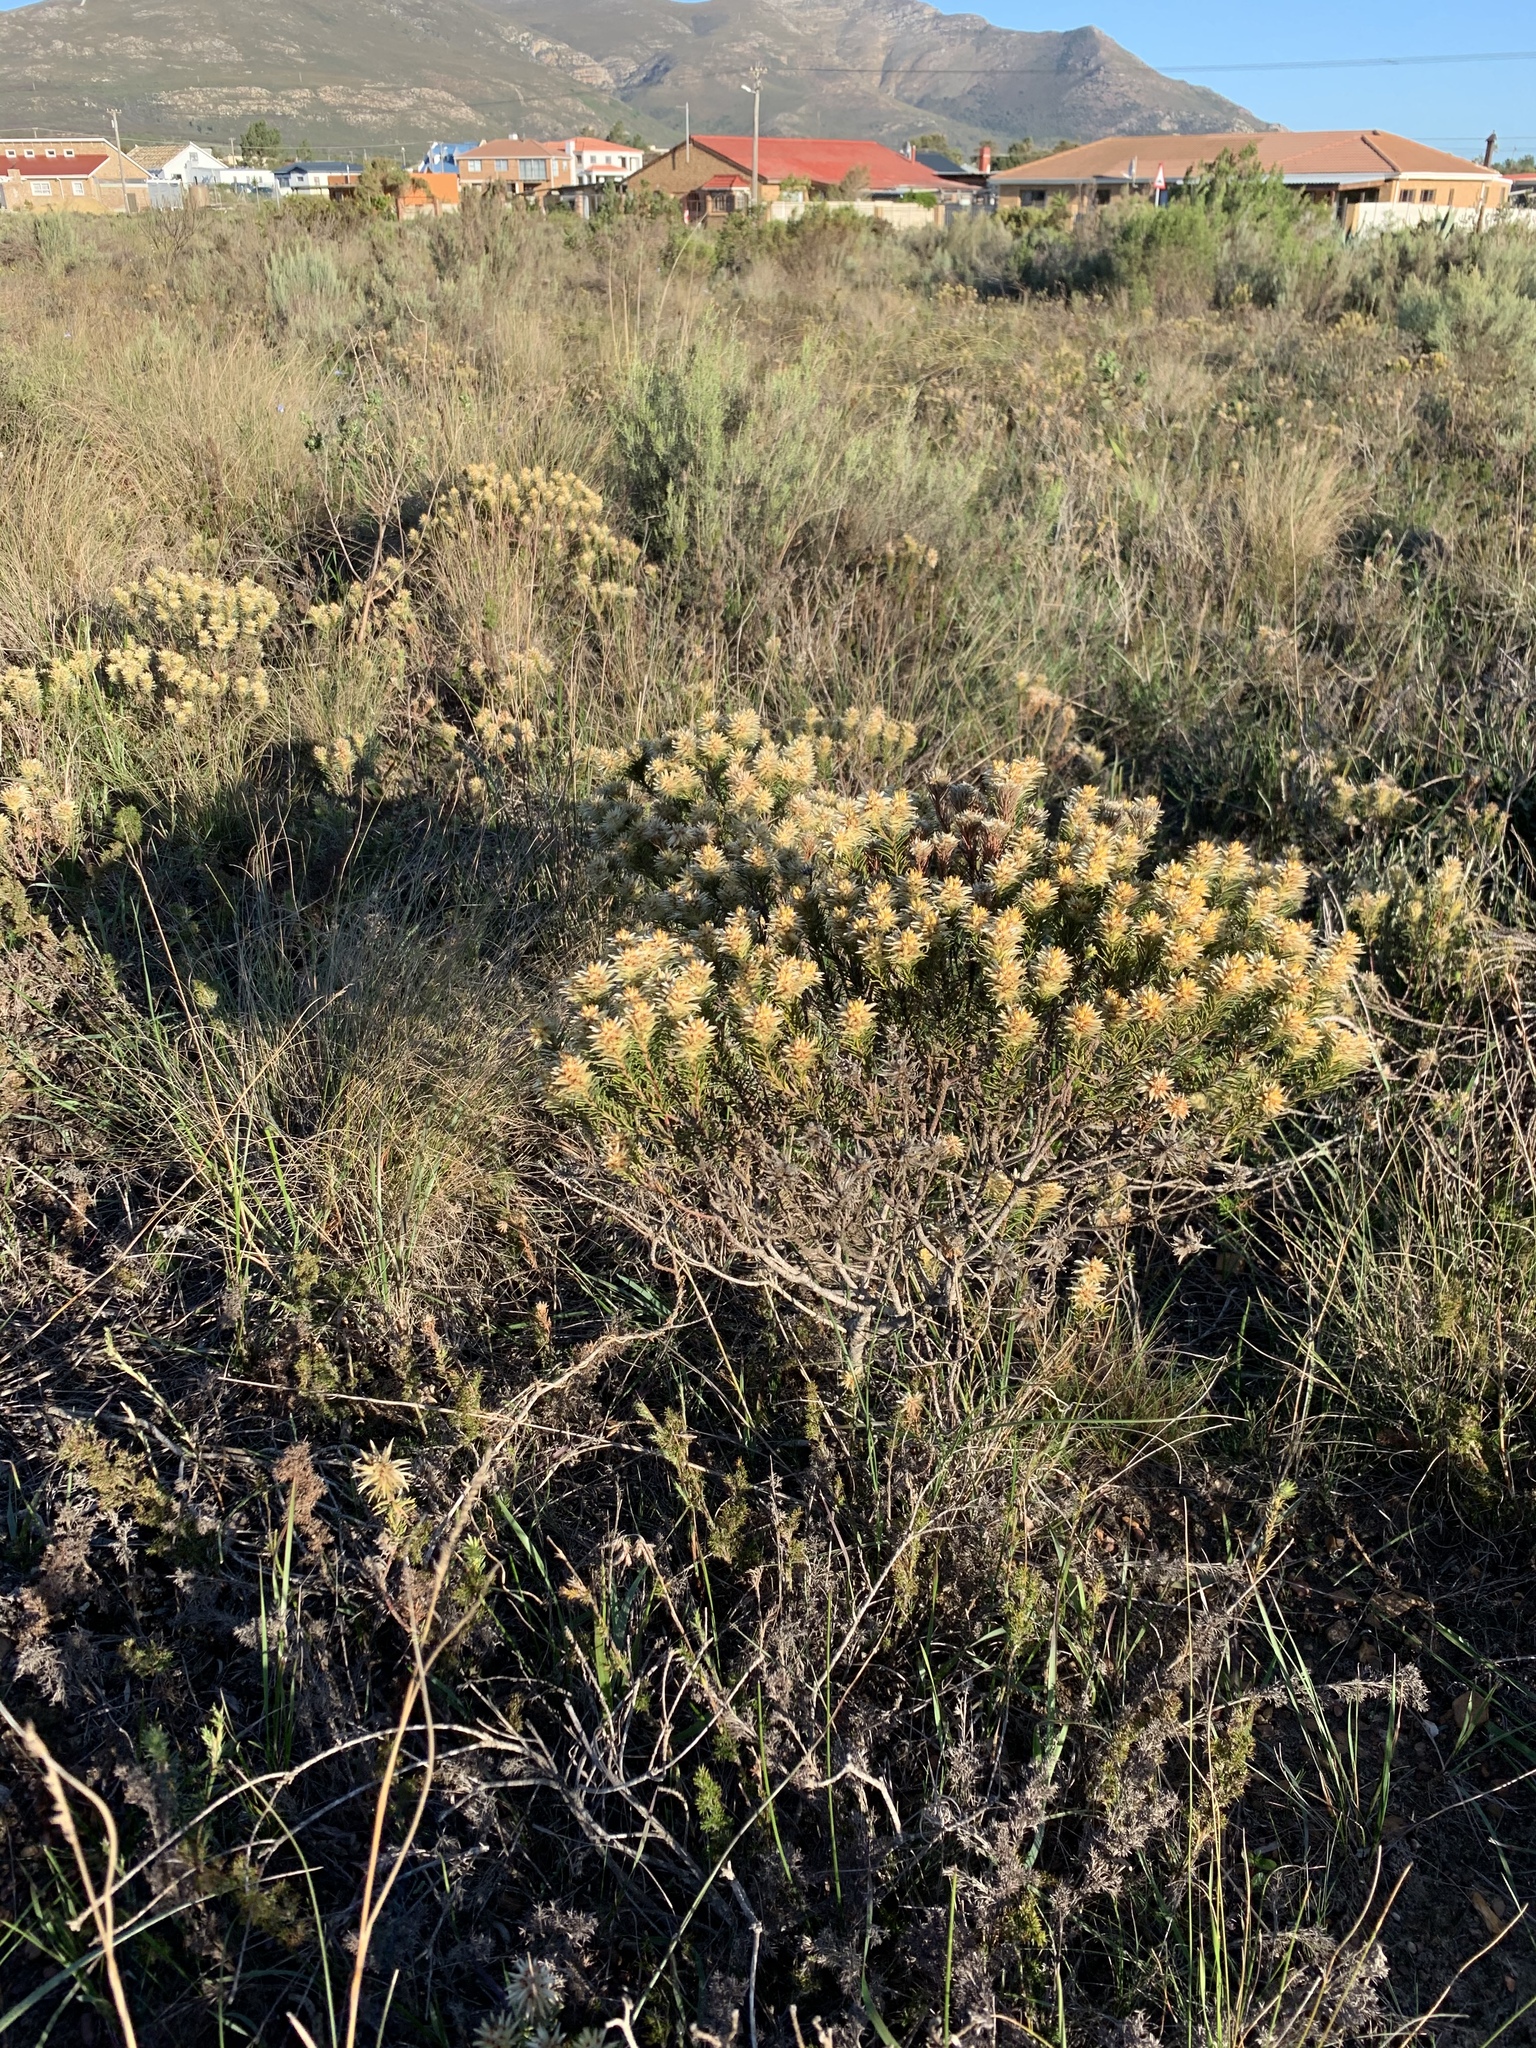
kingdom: Plantae
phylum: Tracheophyta
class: Magnoliopsida
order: Rosales
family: Rhamnaceae
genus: Phylica
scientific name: Phylica plumosa
